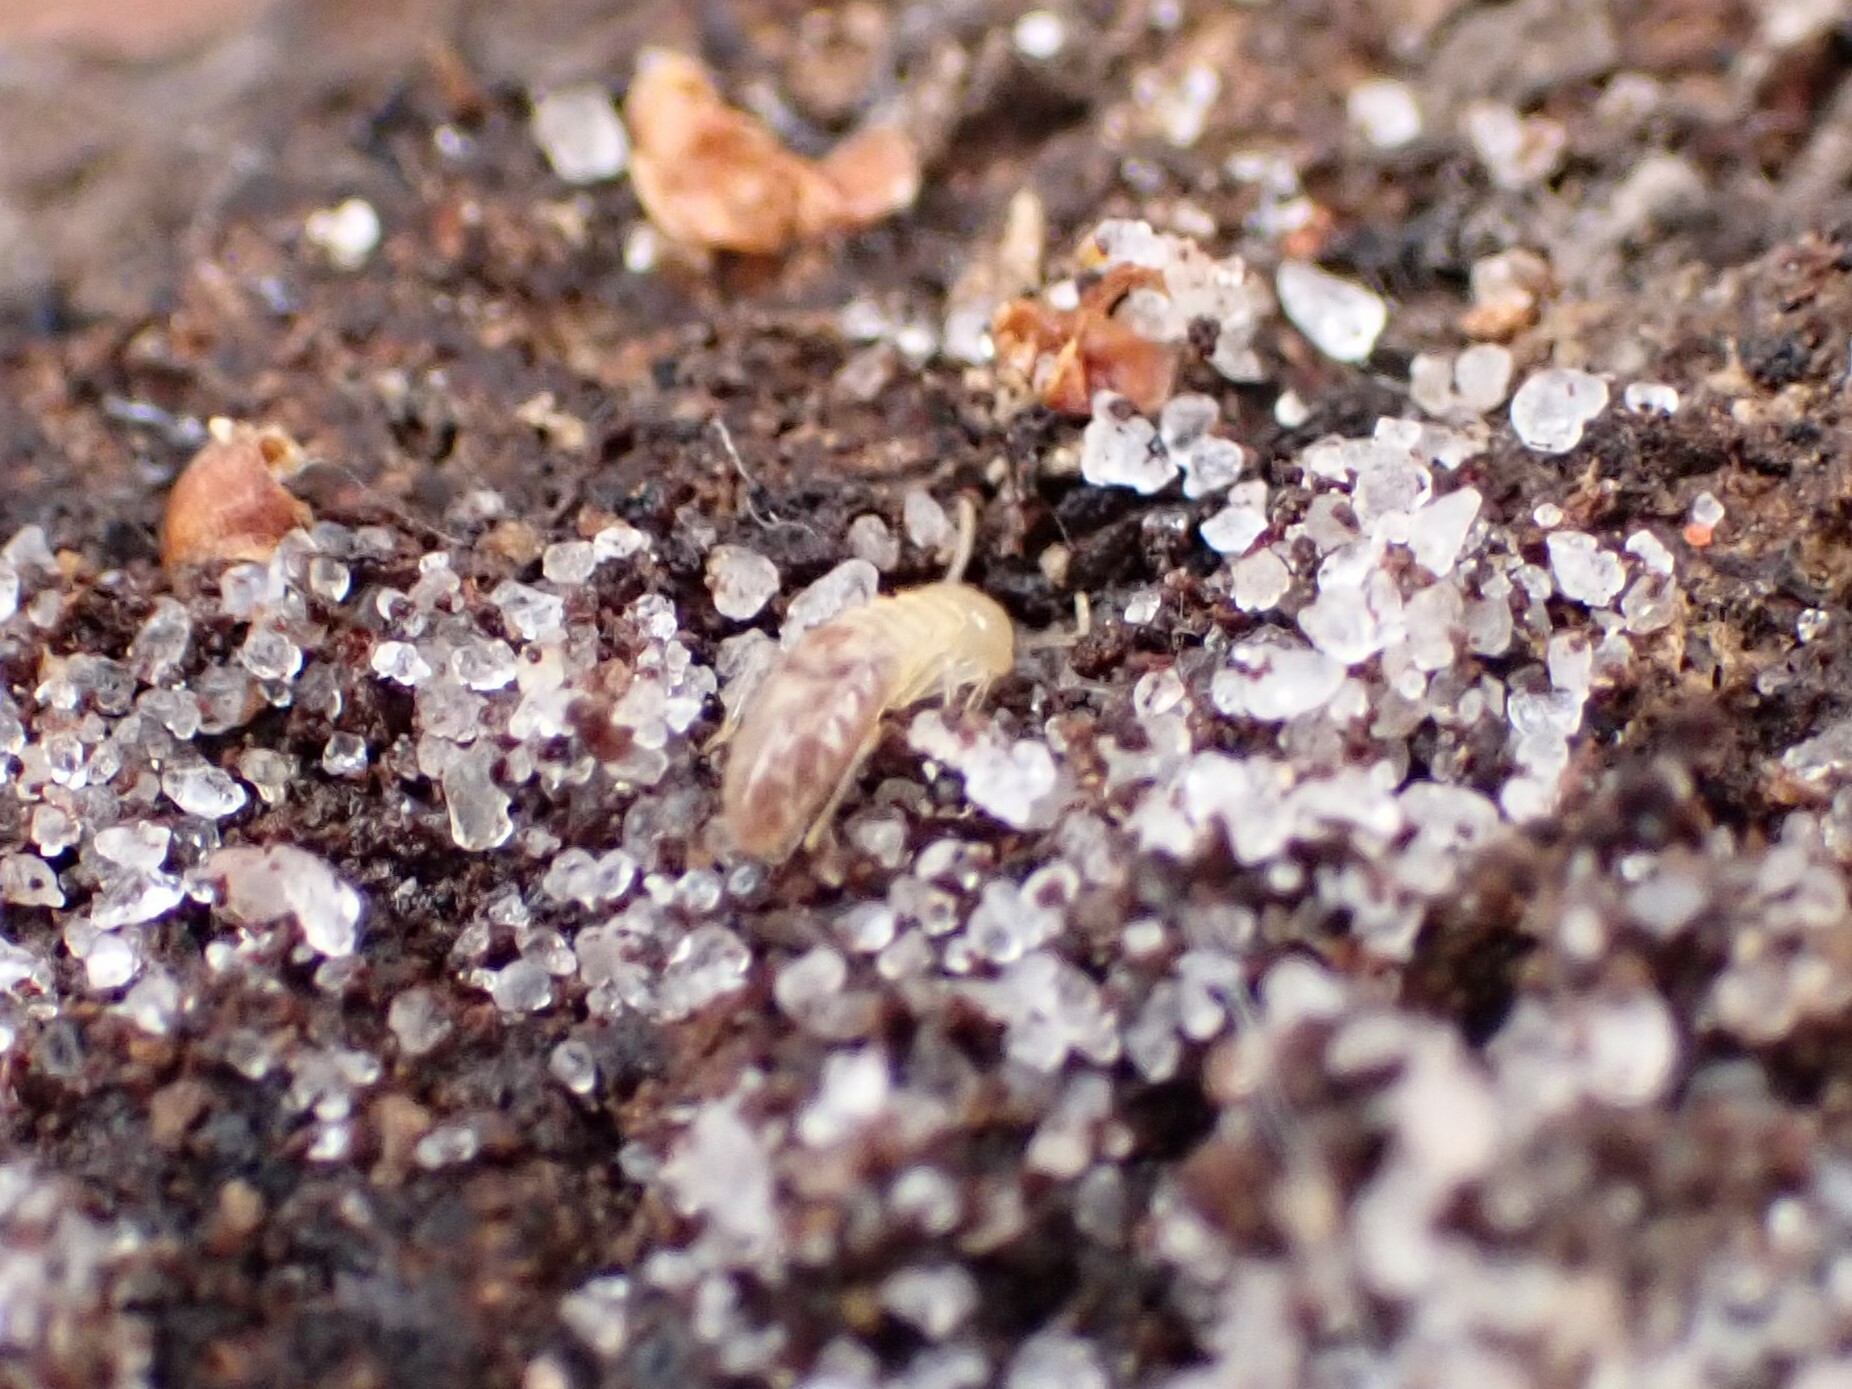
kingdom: Animalia
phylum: Arthropoda
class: Insecta
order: Blattodea
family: Rhinotermitidae
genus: Reticulitermes
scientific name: Reticulitermes flavipes
